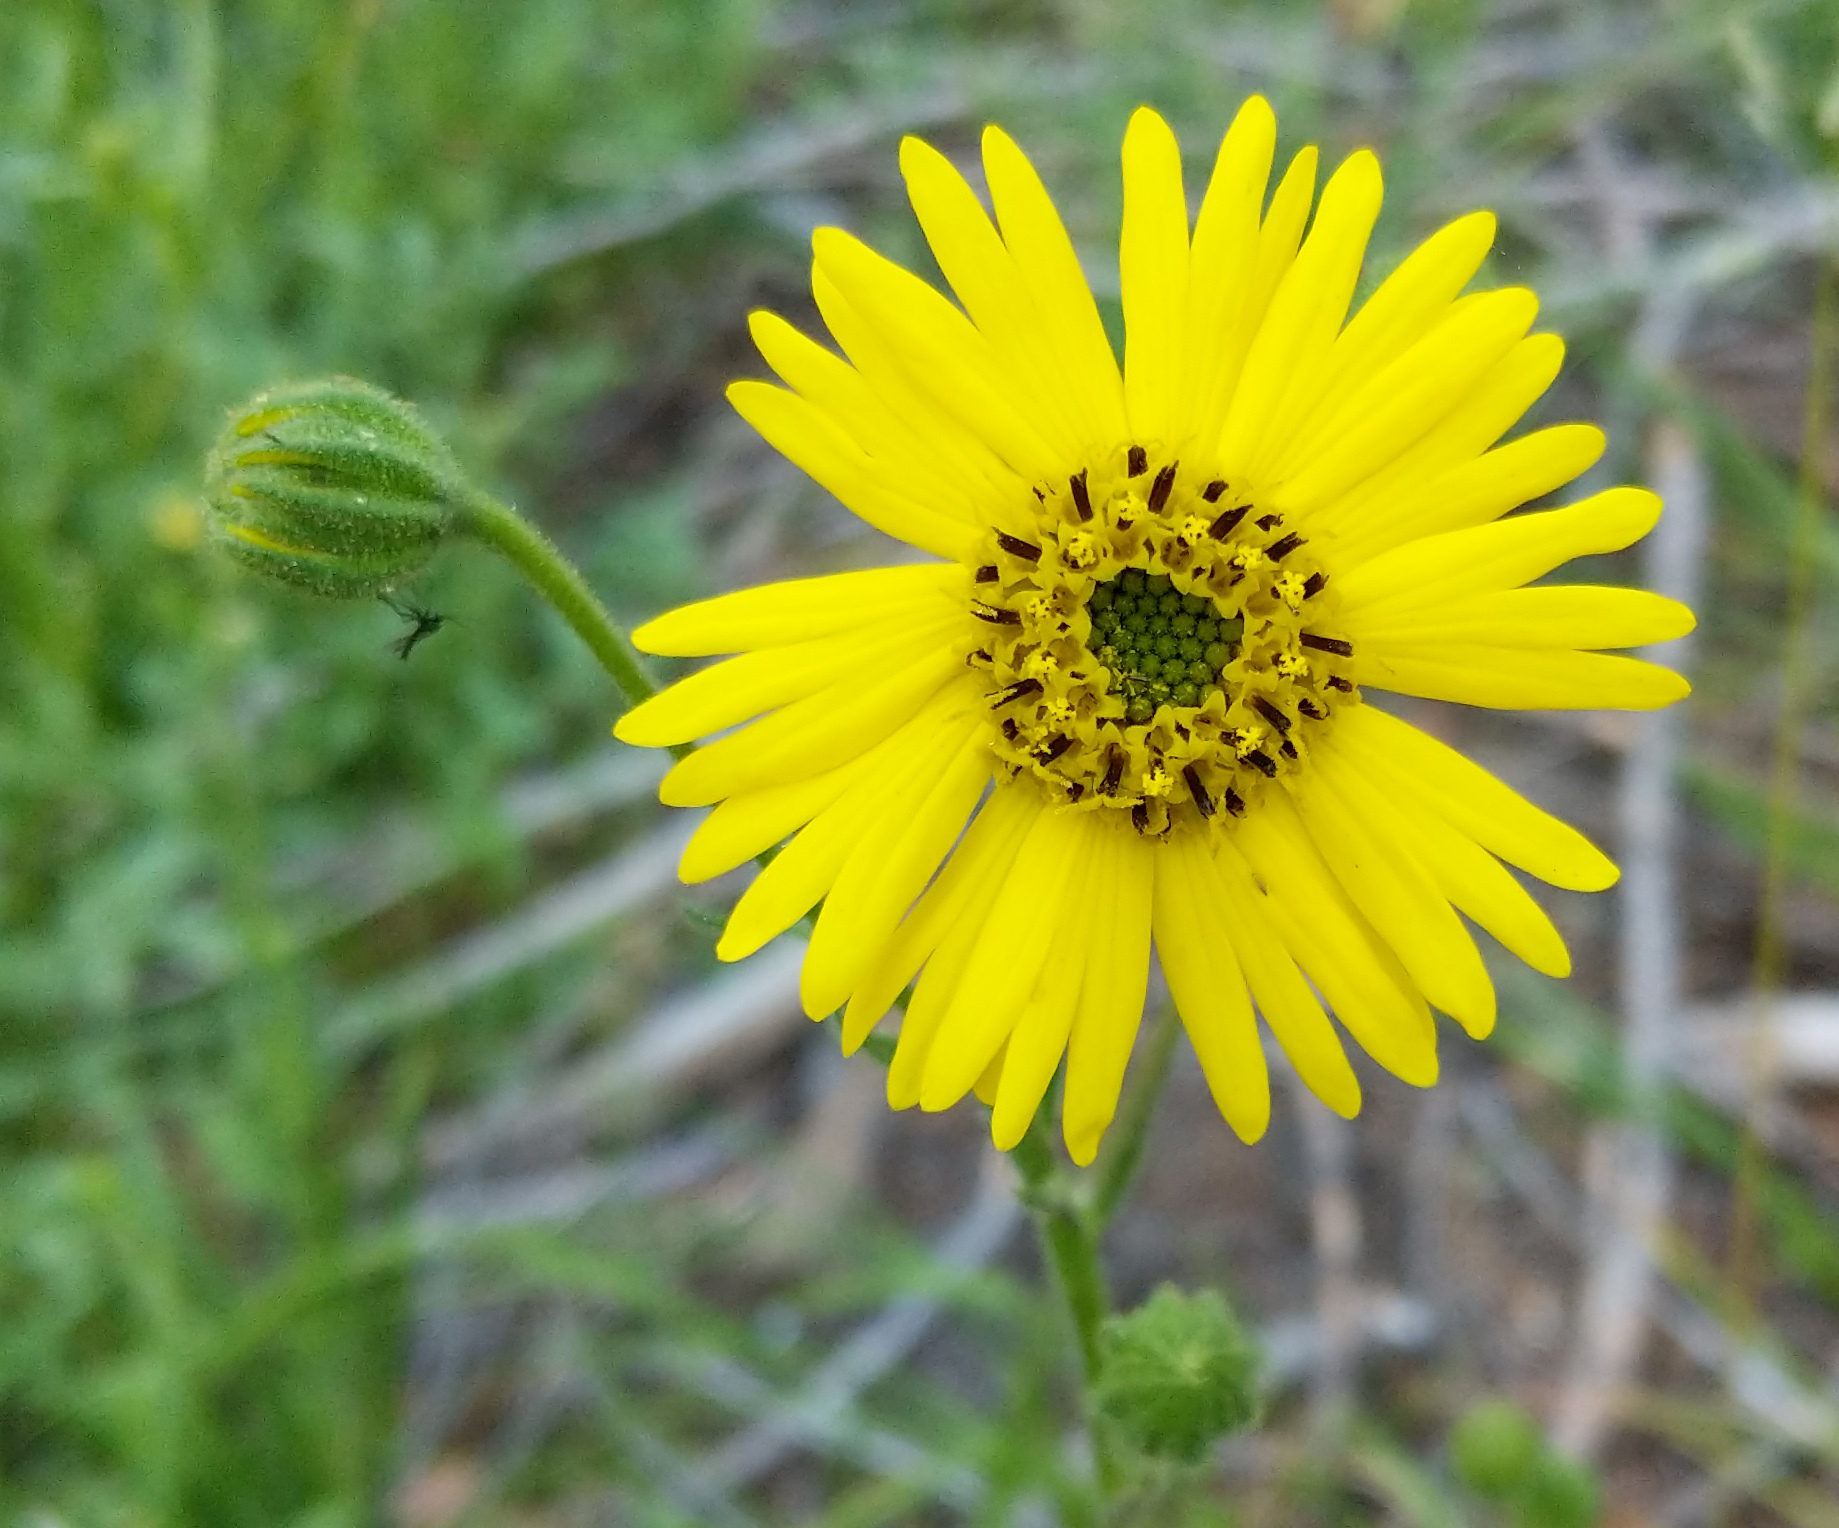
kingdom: Plantae
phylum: Tracheophyta
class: Magnoliopsida
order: Asterales
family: Asteraceae
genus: Madia
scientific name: Madia elegans
